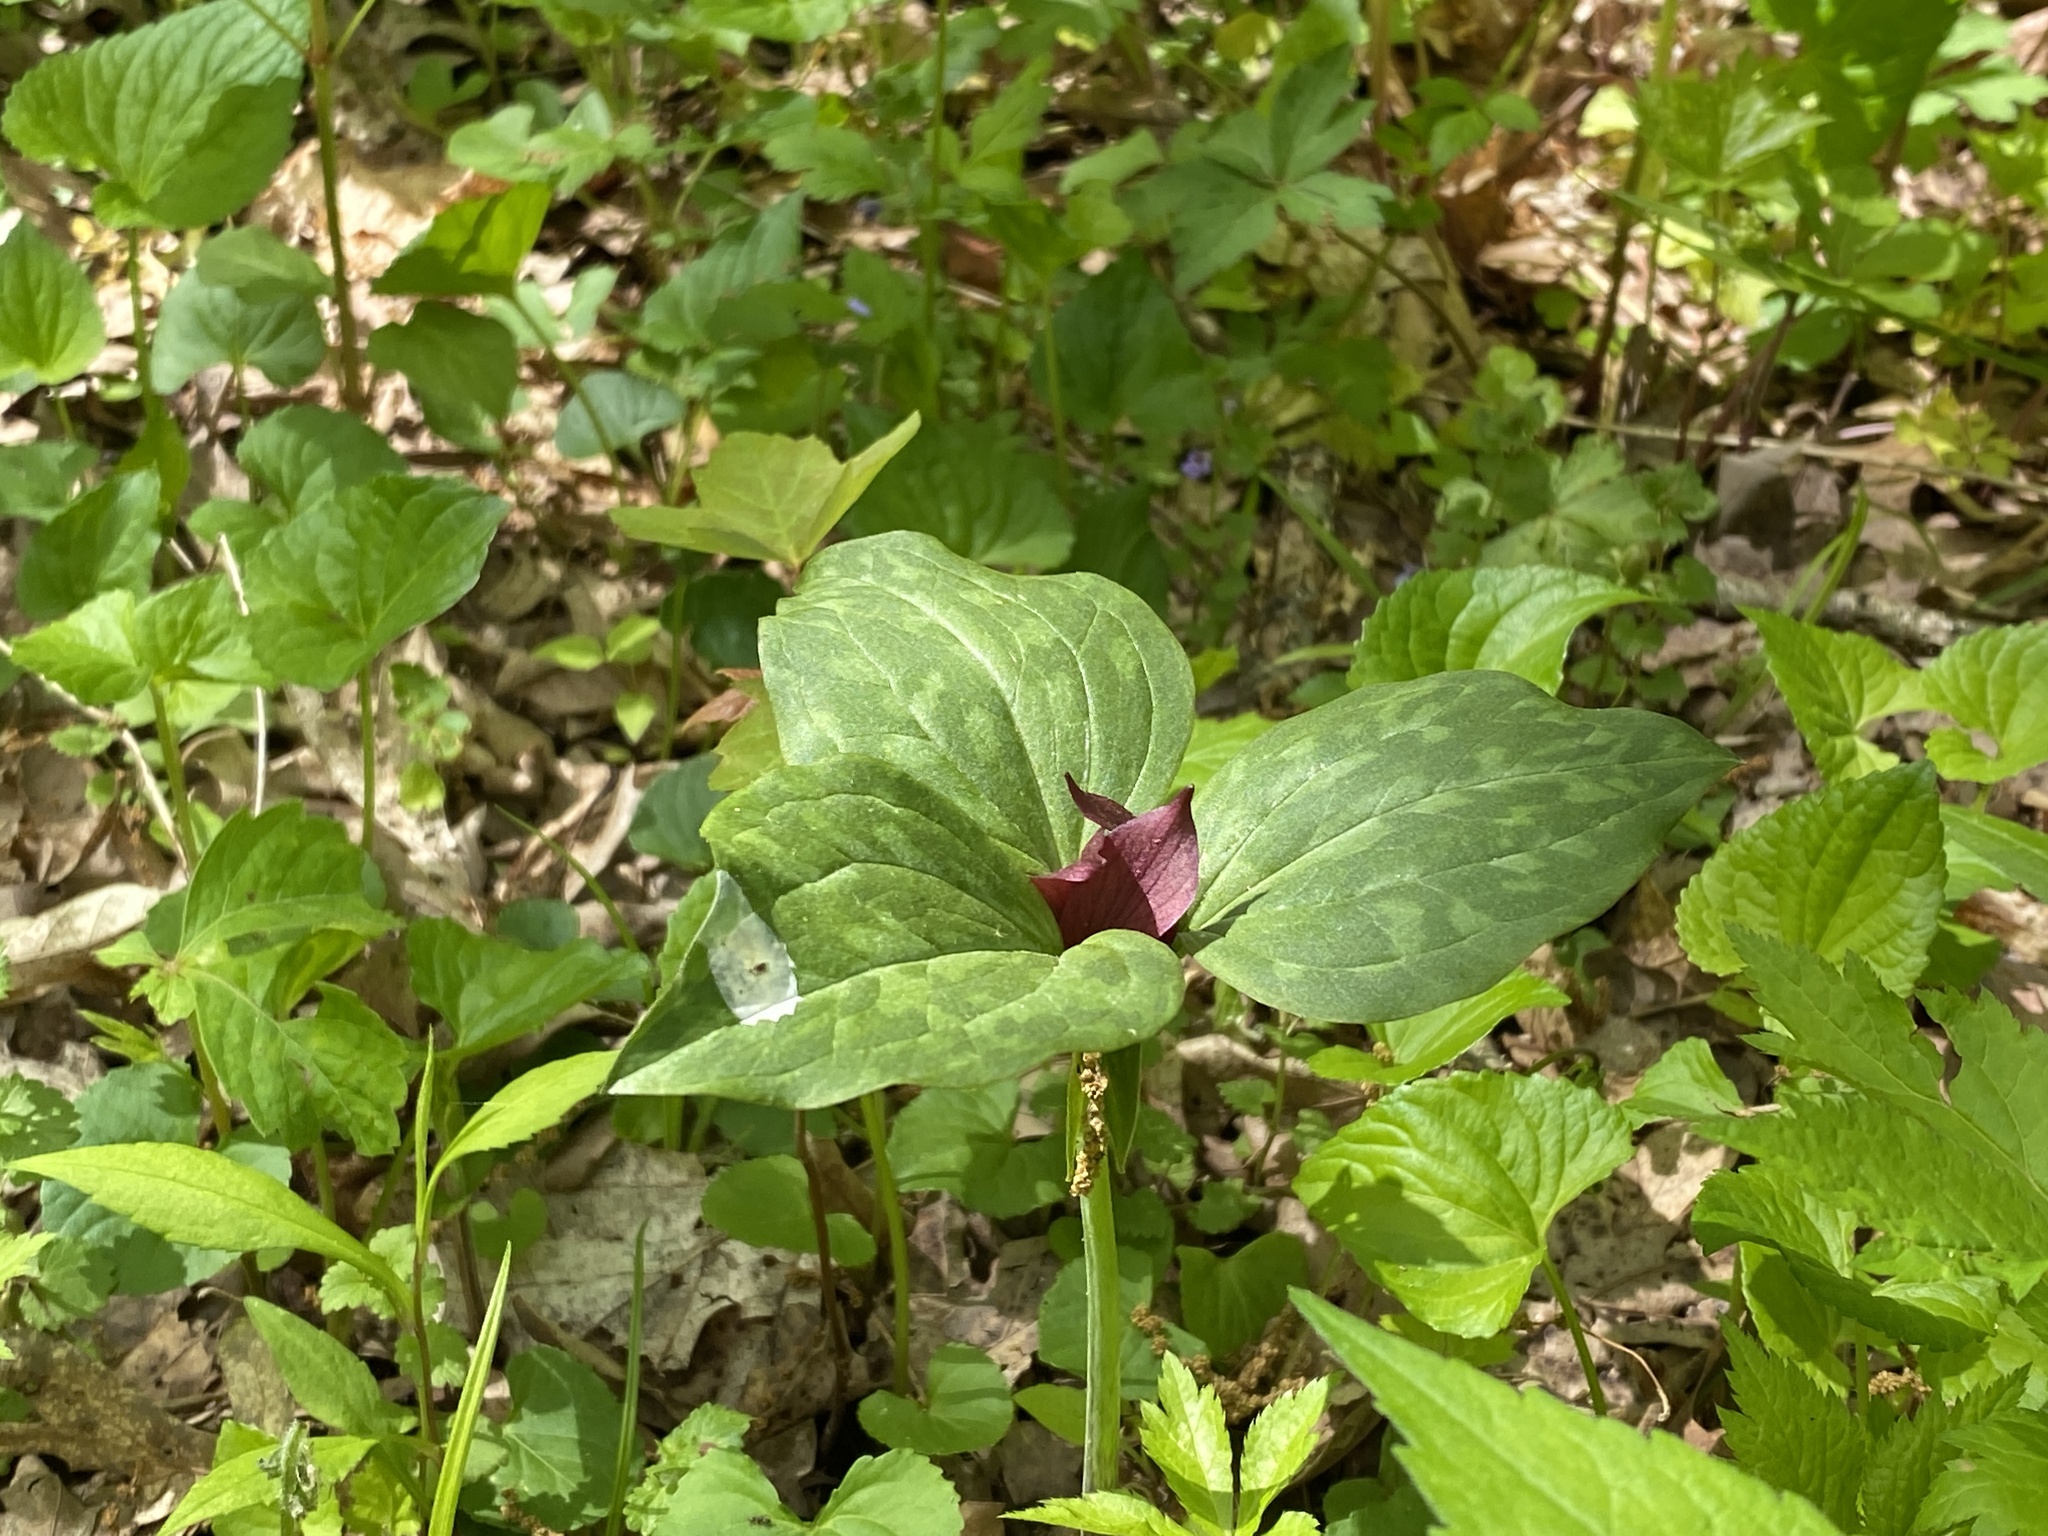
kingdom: Plantae
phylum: Tracheophyta
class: Liliopsida
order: Liliales
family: Melanthiaceae
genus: Trillium
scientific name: Trillium recurvatum
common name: Bloody butcher
